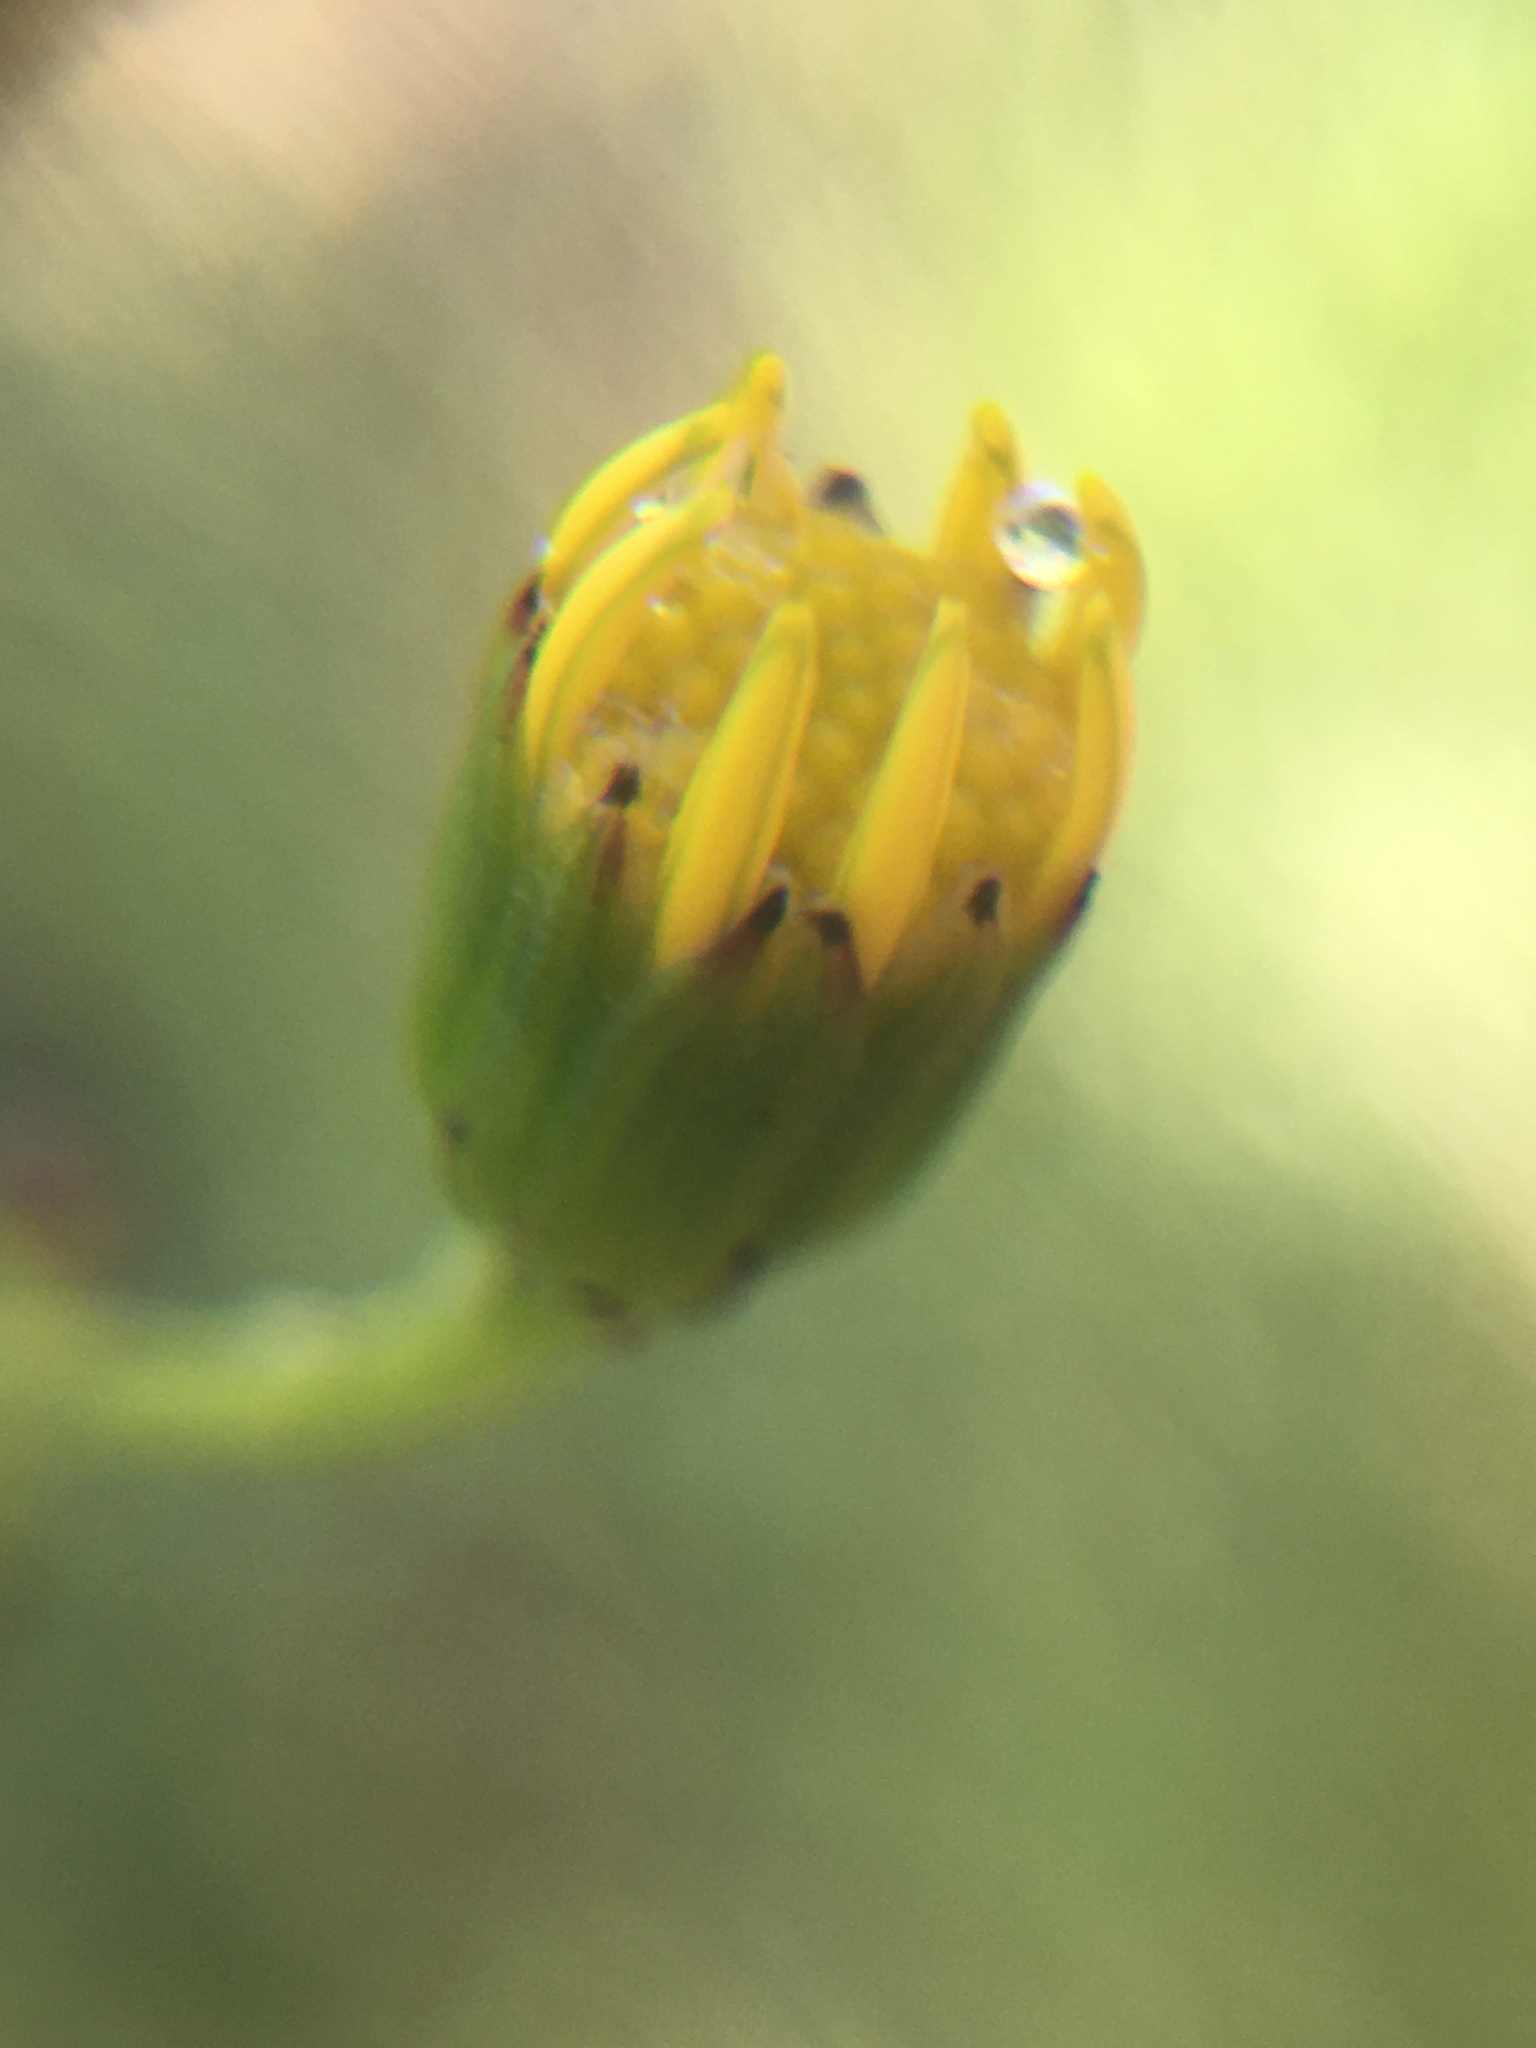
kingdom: Plantae
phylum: Tracheophyta
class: Magnoliopsida
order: Asterales
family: Asteraceae
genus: Senecio
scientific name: Senecio burchellii
